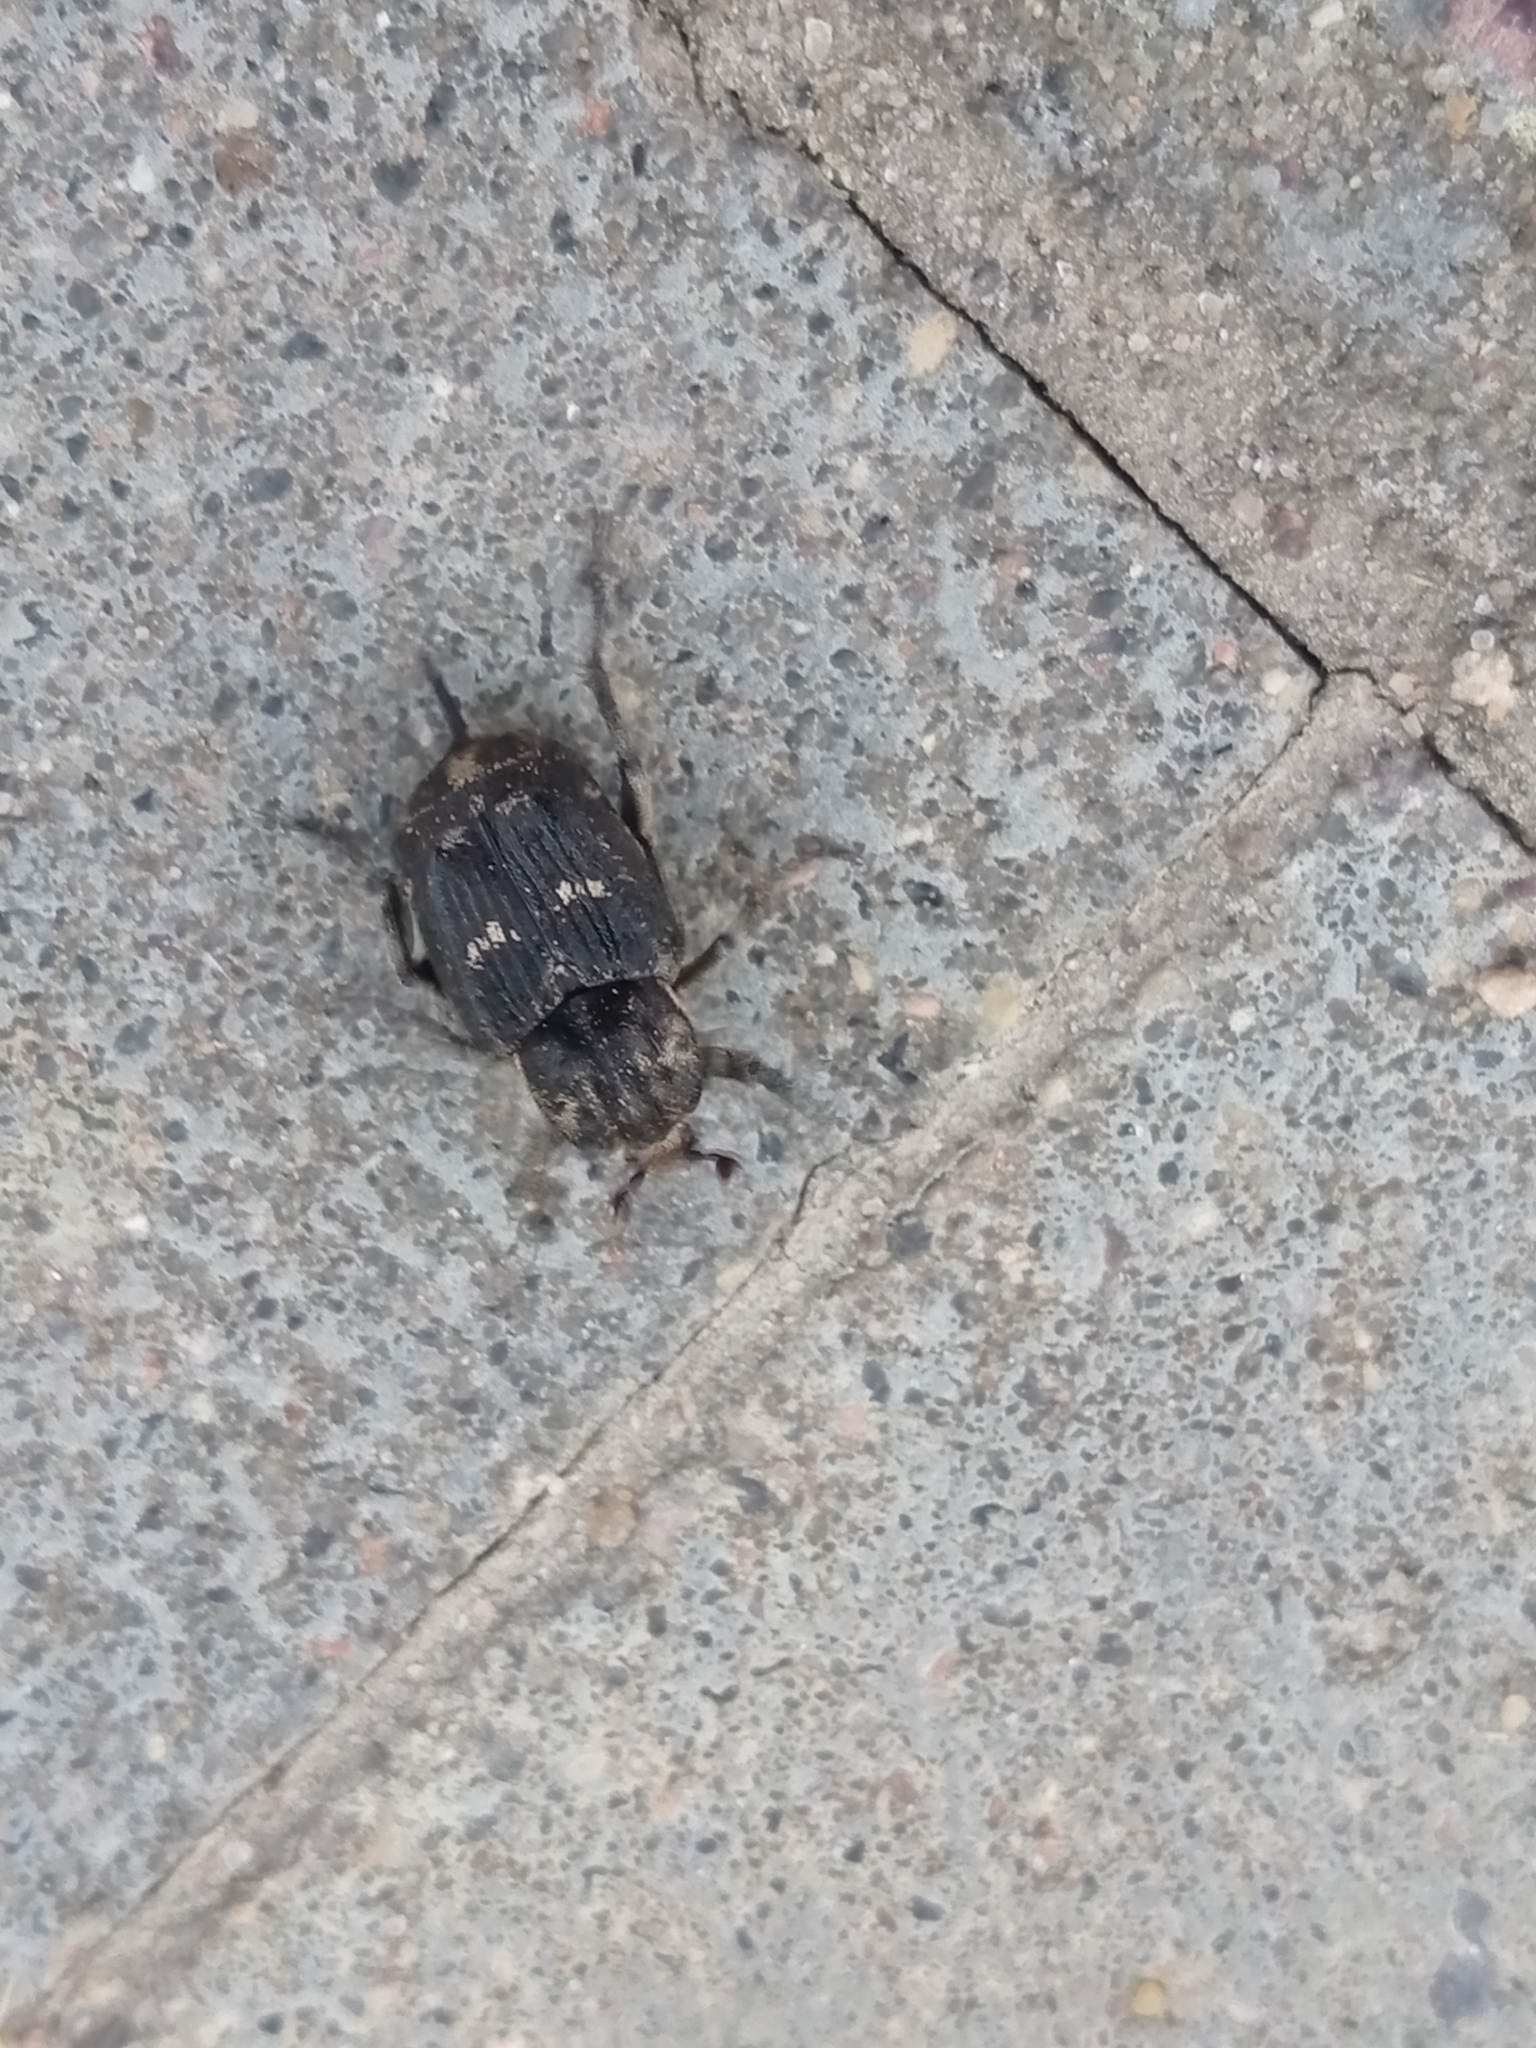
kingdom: Animalia
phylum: Arthropoda
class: Insecta
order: Coleoptera
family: Scarabaeidae
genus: Valgus
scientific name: Valgus hemipterus
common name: Bug flower chafer
